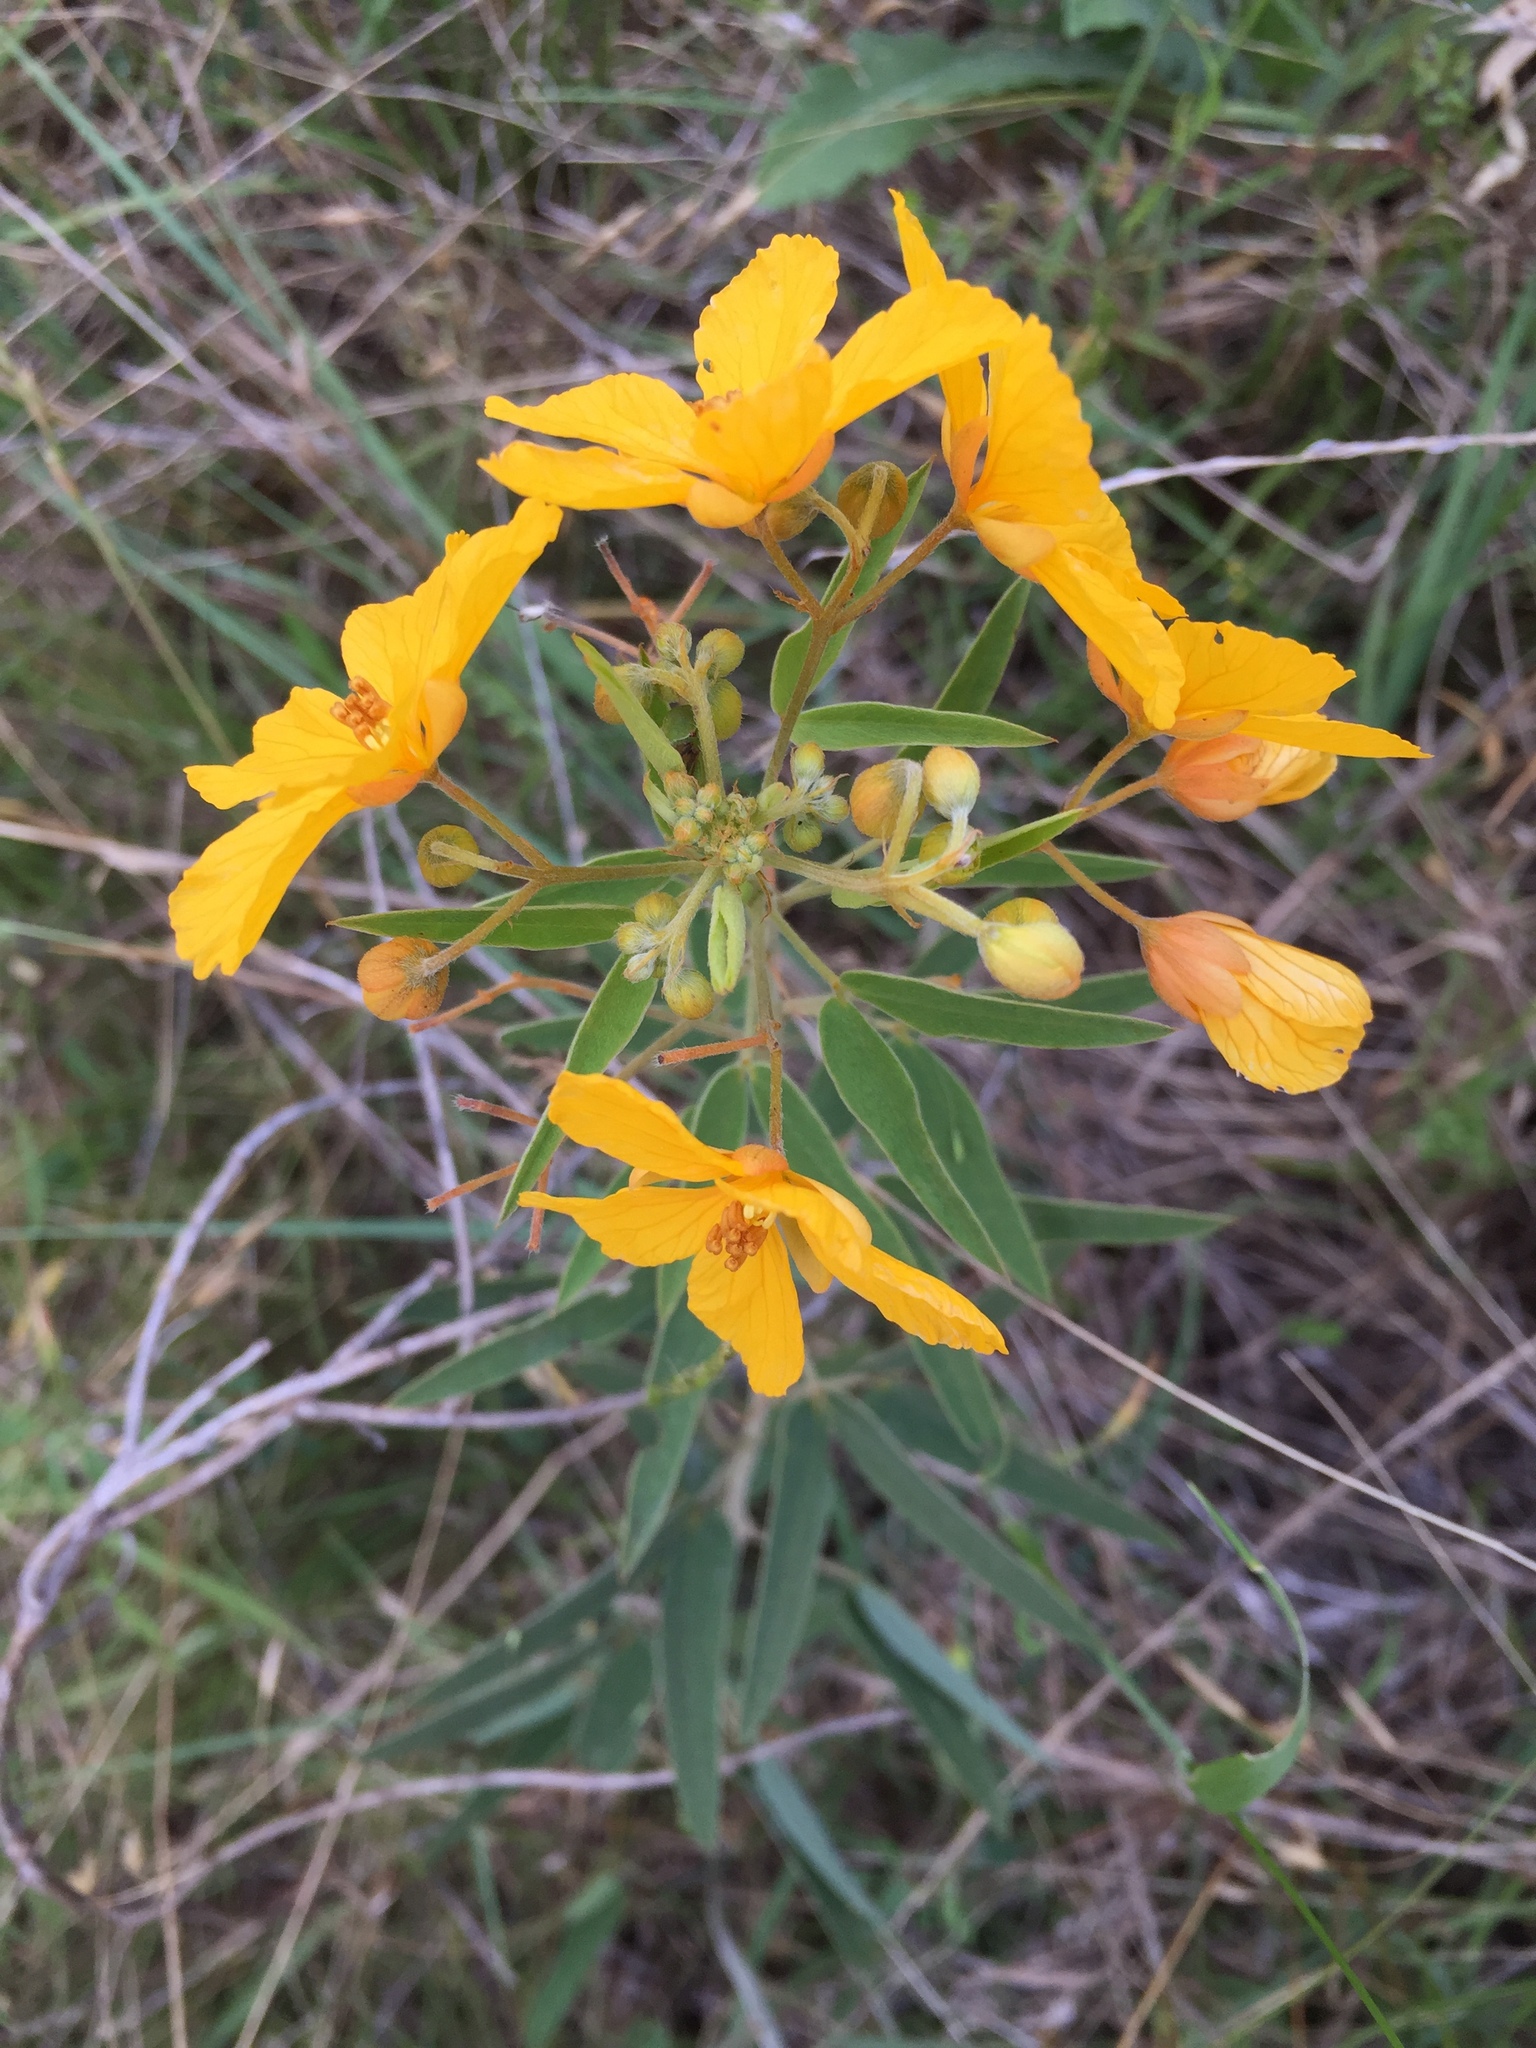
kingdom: Plantae
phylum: Tracheophyta
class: Magnoliopsida
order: Fabales
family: Fabaceae
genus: Senna
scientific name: Senna roemeriana
